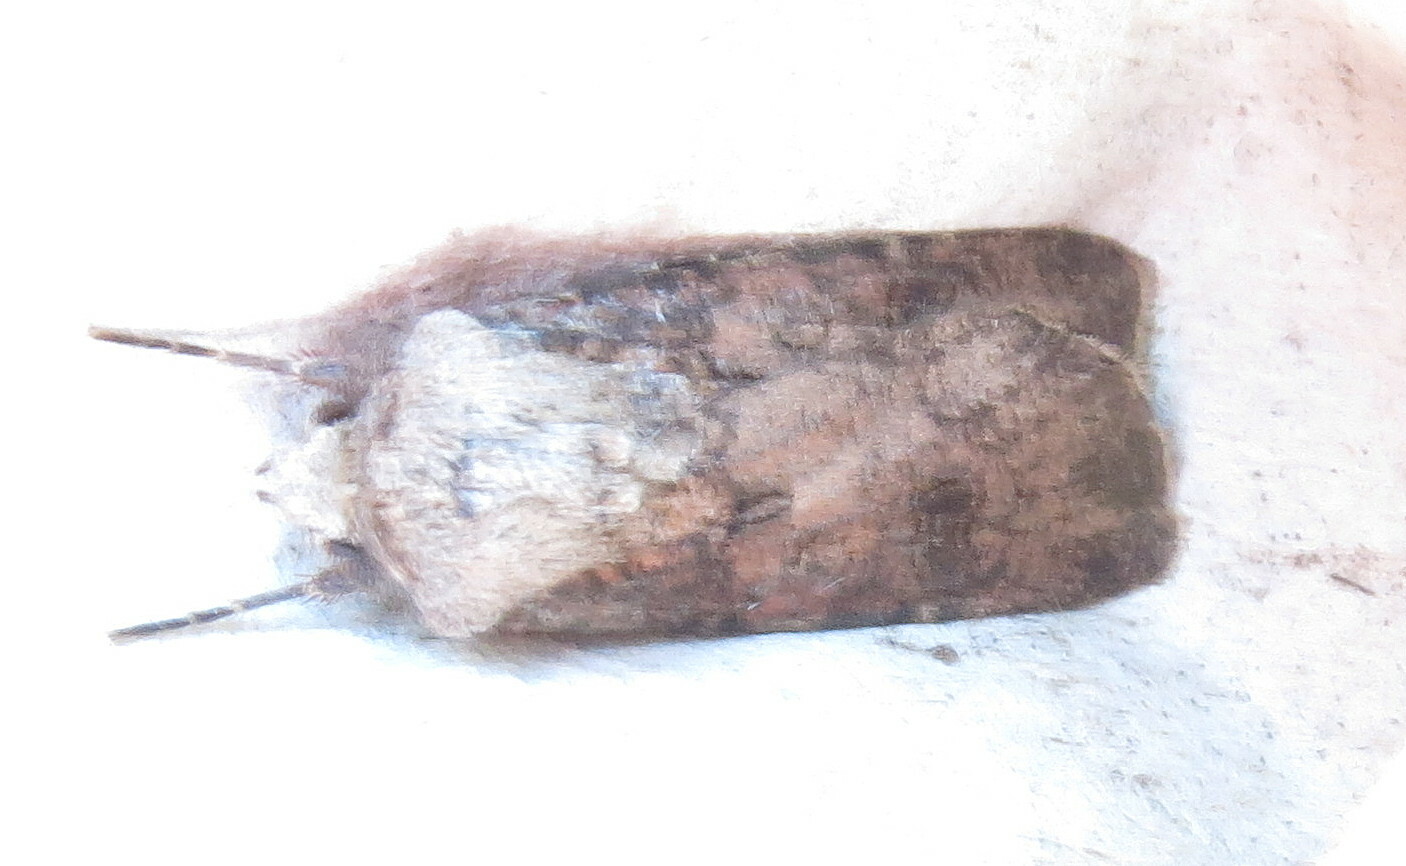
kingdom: Animalia
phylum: Arthropoda
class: Insecta
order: Lepidoptera
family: Noctuidae
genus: Agrotis
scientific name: Agrotis segetum
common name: Turnip moth
